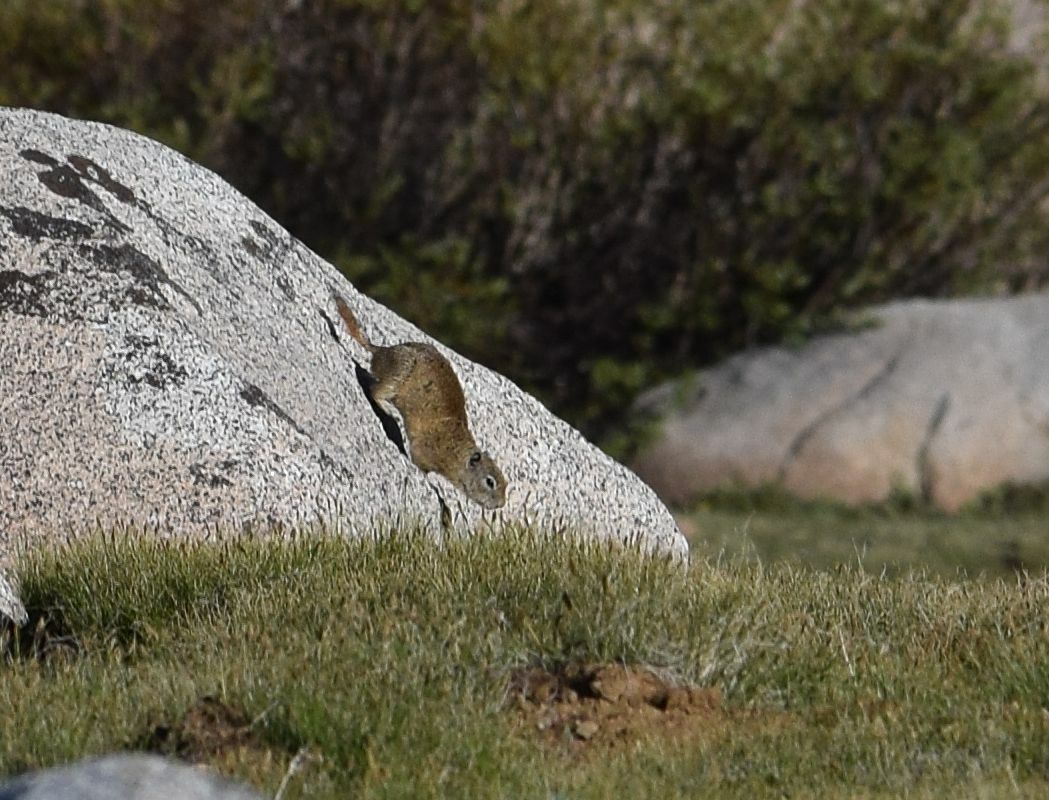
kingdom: Animalia
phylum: Chordata
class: Mammalia
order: Rodentia
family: Sciuridae
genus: Urocitellus
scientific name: Urocitellus beldingi
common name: Belding's ground squirrel
